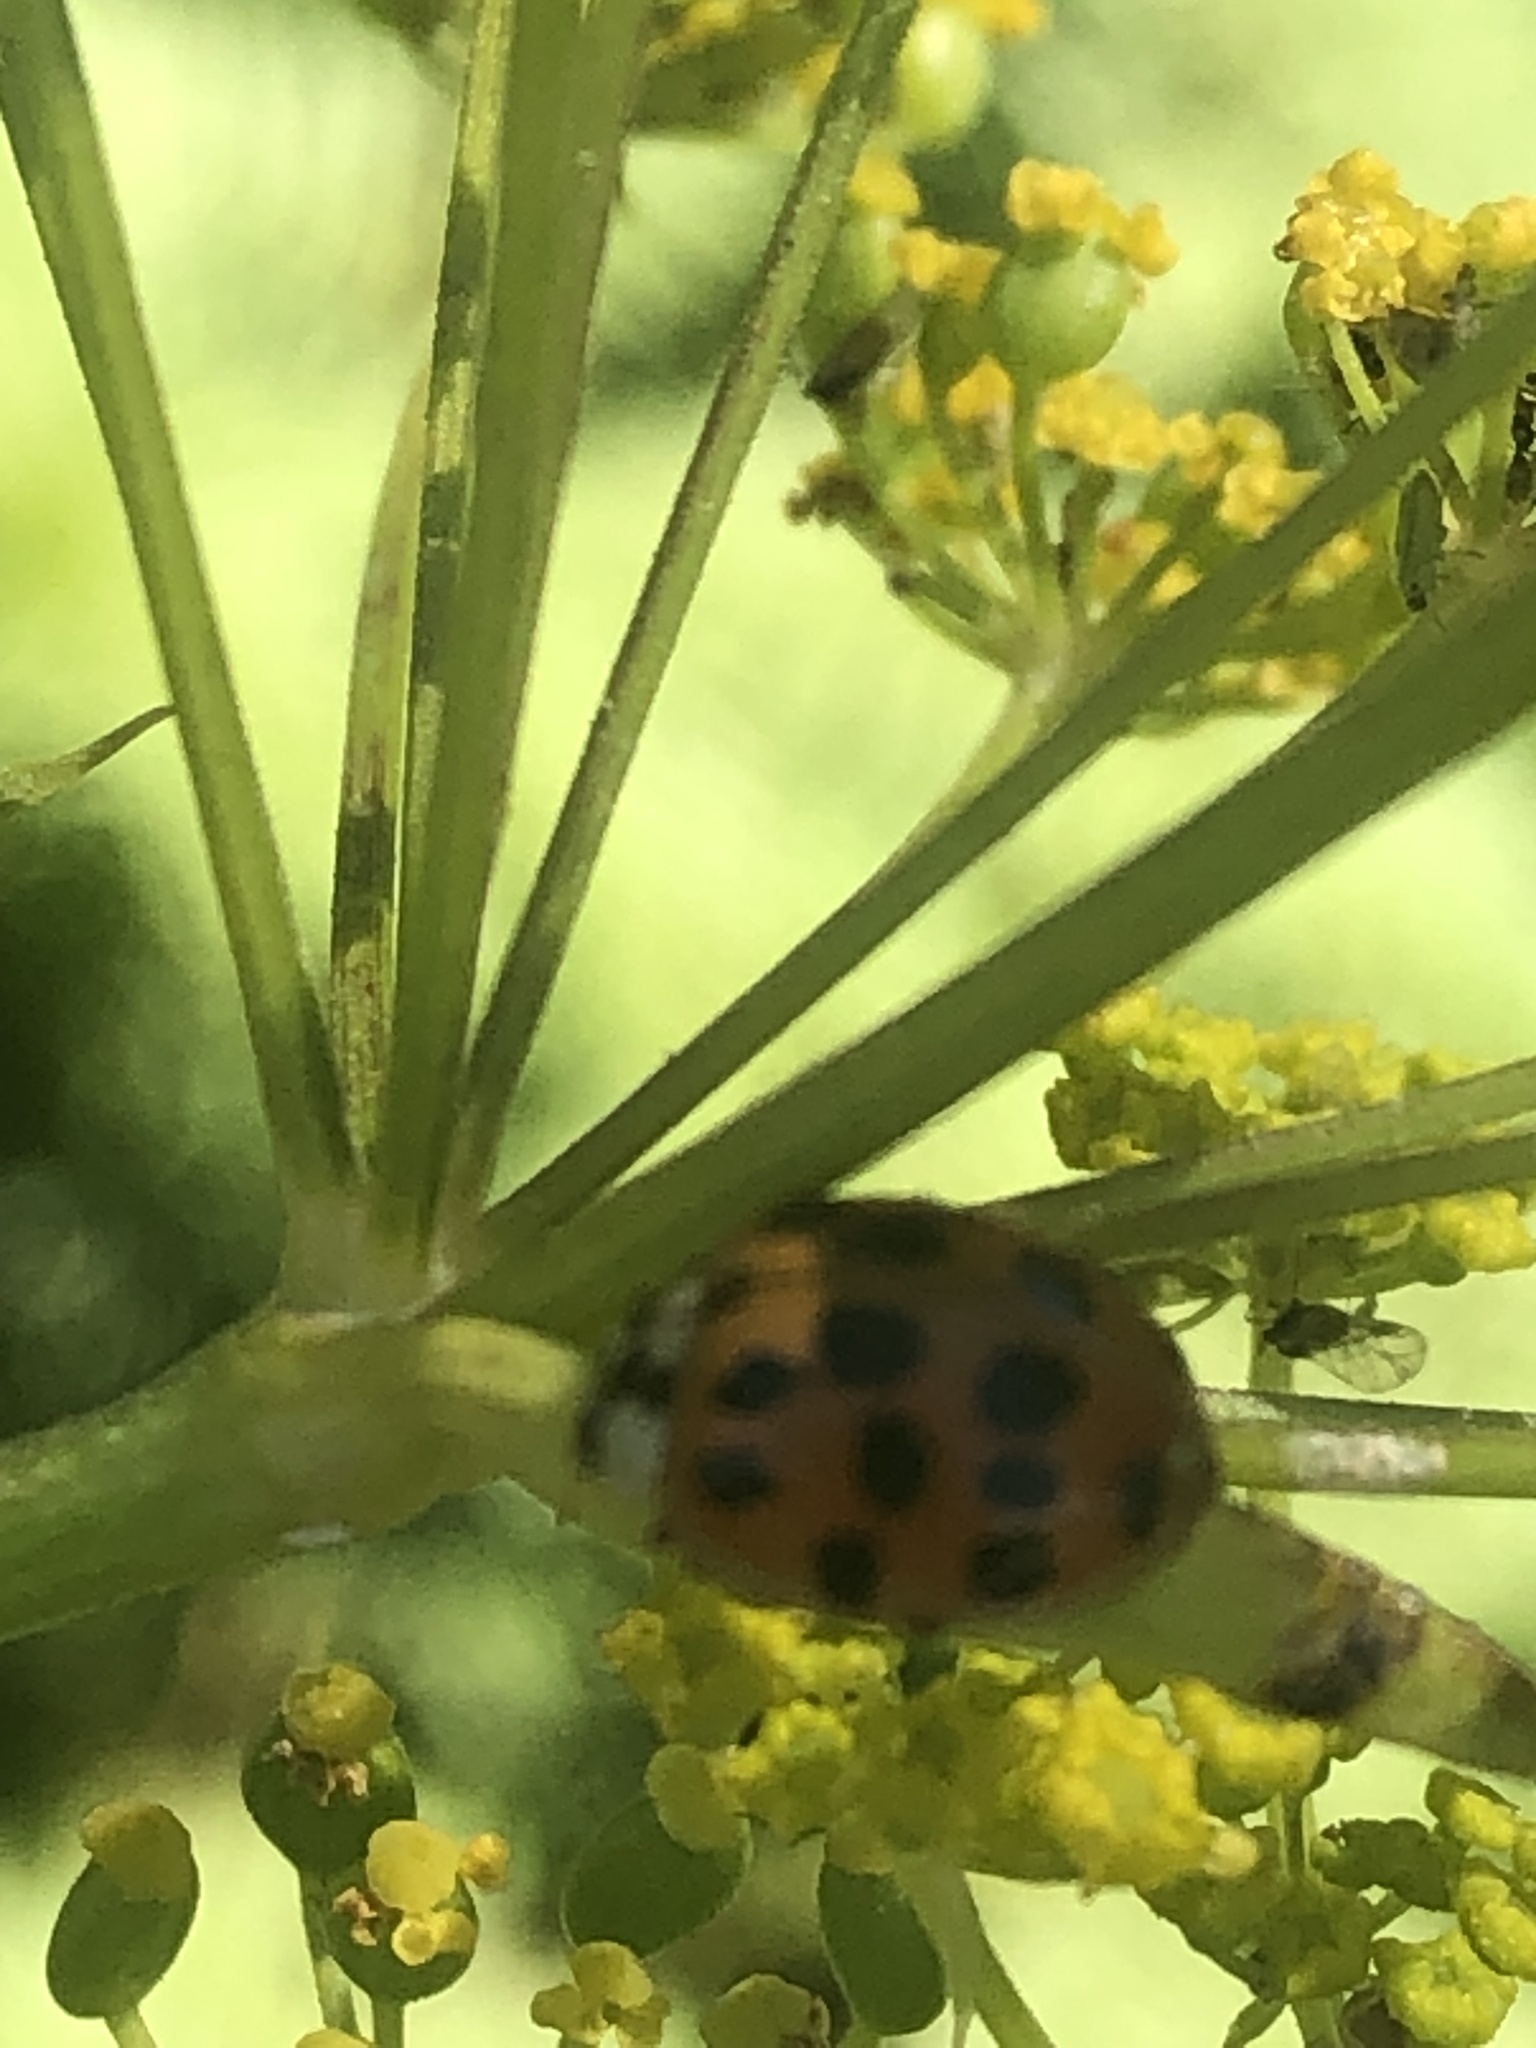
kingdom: Animalia
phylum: Arthropoda
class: Insecta
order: Coleoptera
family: Coccinellidae
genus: Harmonia
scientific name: Harmonia axyridis
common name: Harlequin ladybird
